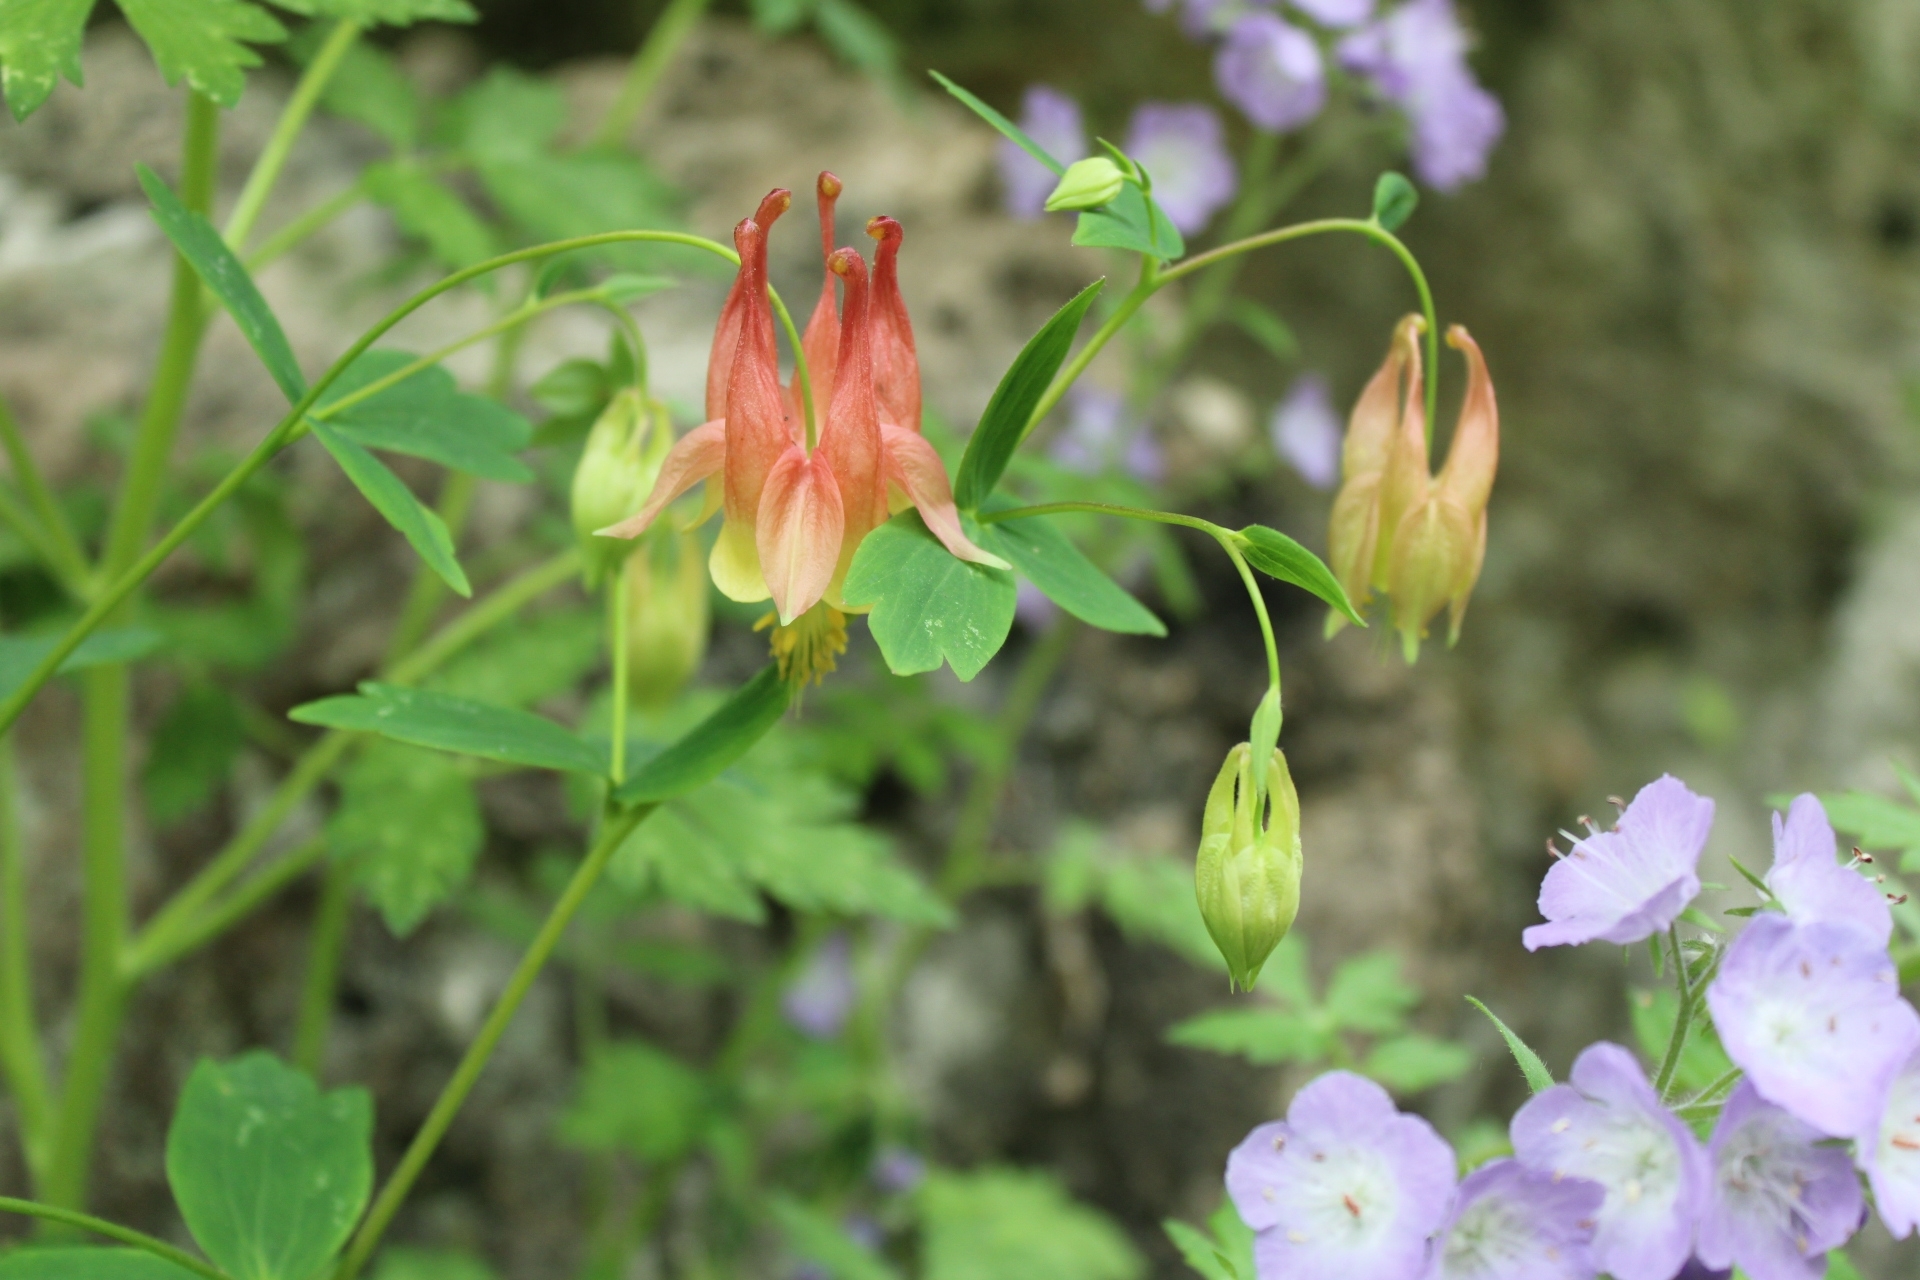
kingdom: Plantae
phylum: Tracheophyta
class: Magnoliopsida
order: Ranunculales
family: Ranunculaceae
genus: Aquilegia
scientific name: Aquilegia canadensis
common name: American columbine
